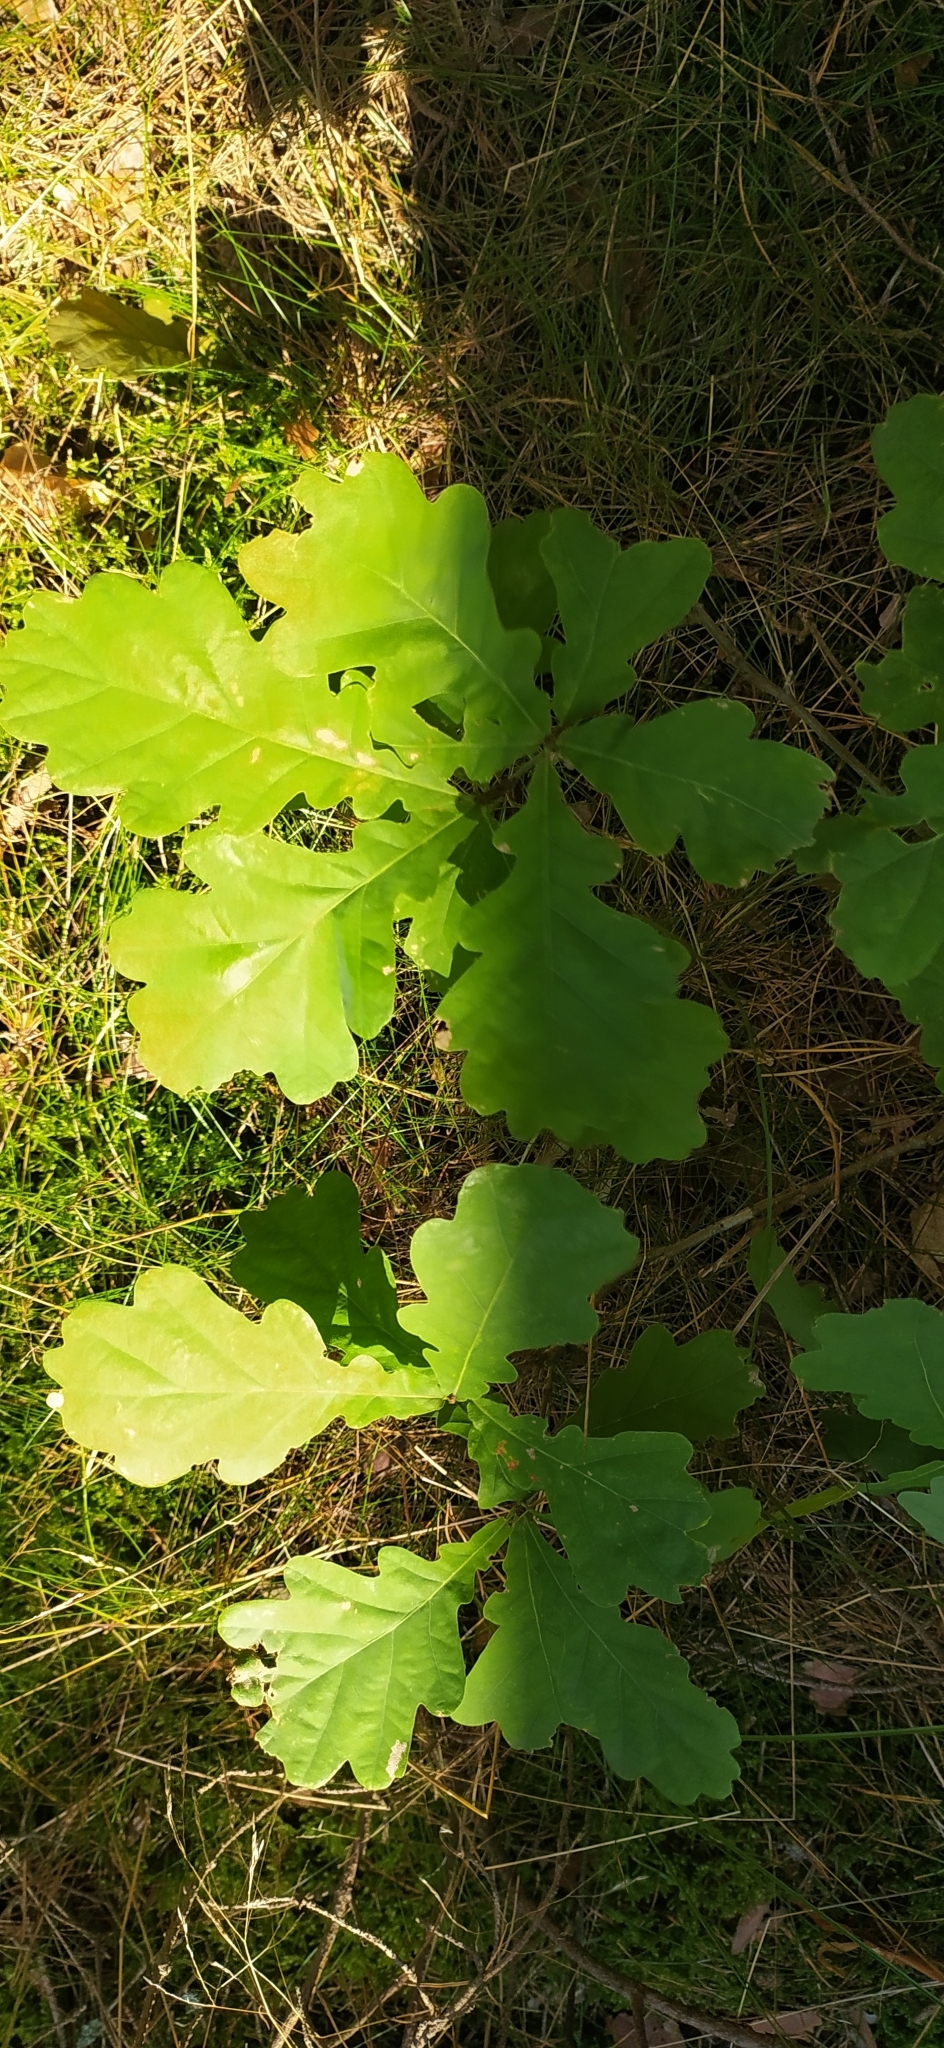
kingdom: Plantae
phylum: Tracheophyta
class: Magnoliopsida
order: Fagales
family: Fagaceae
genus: Quercus
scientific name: Quercus robur
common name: Pedunculate oak
